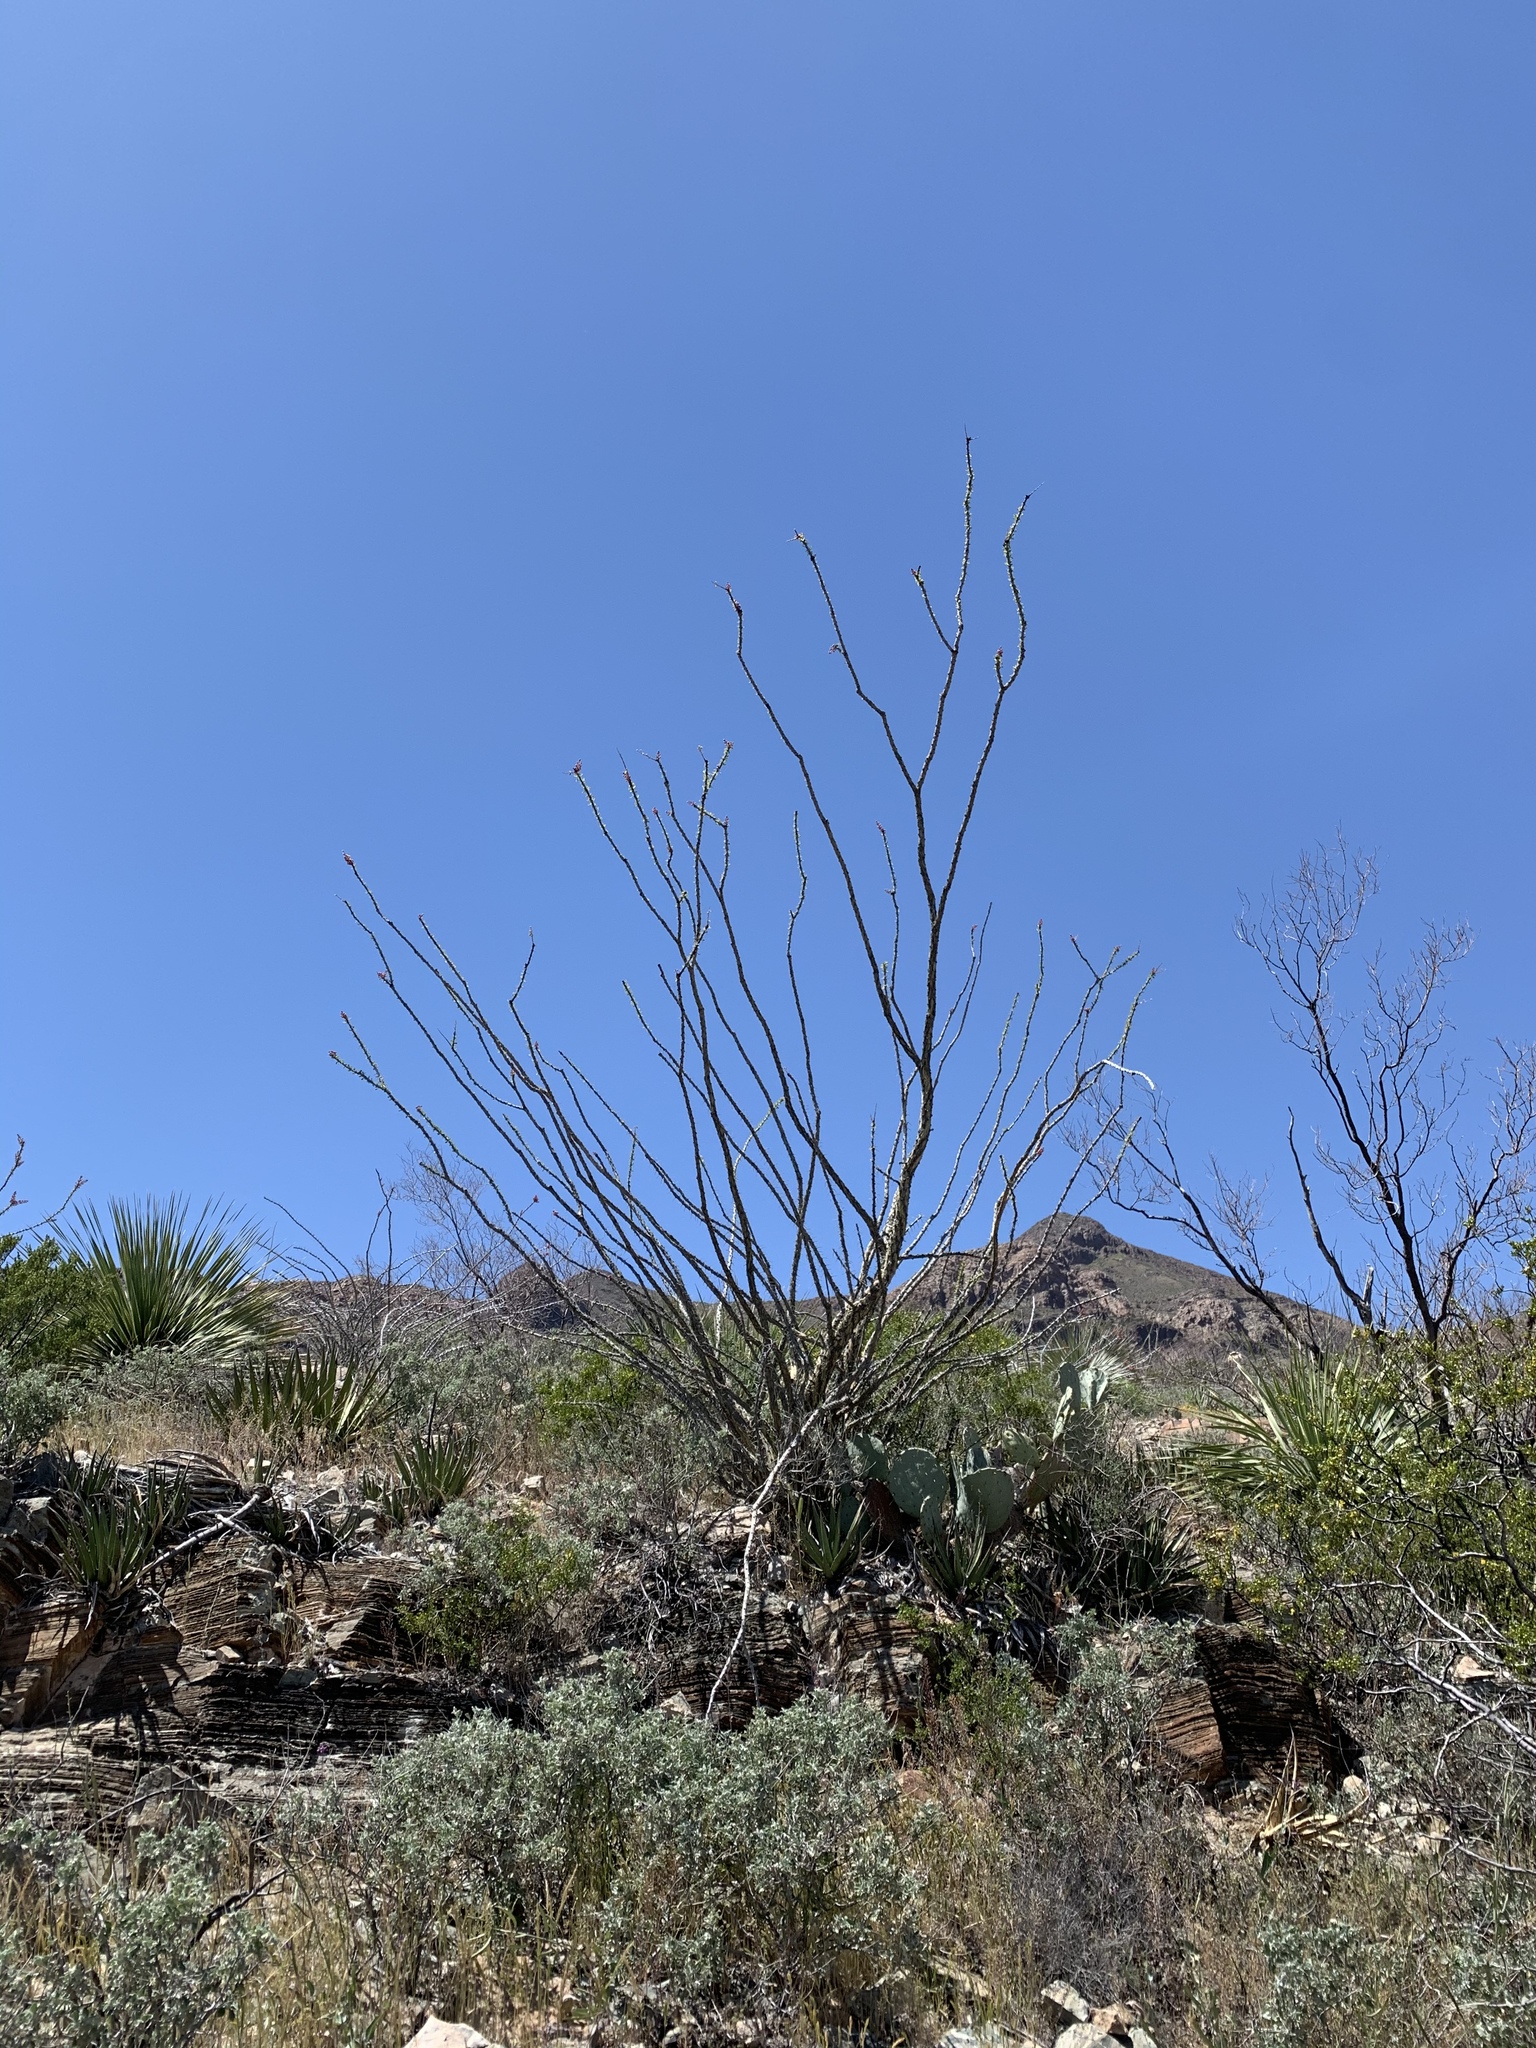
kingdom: Plantae
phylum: Tracheophyta
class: Magnoliopsida
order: Ericales
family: Fouquieriaceae
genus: Fouquieria
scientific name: Fouquieria splendens
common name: Vine-cactus
